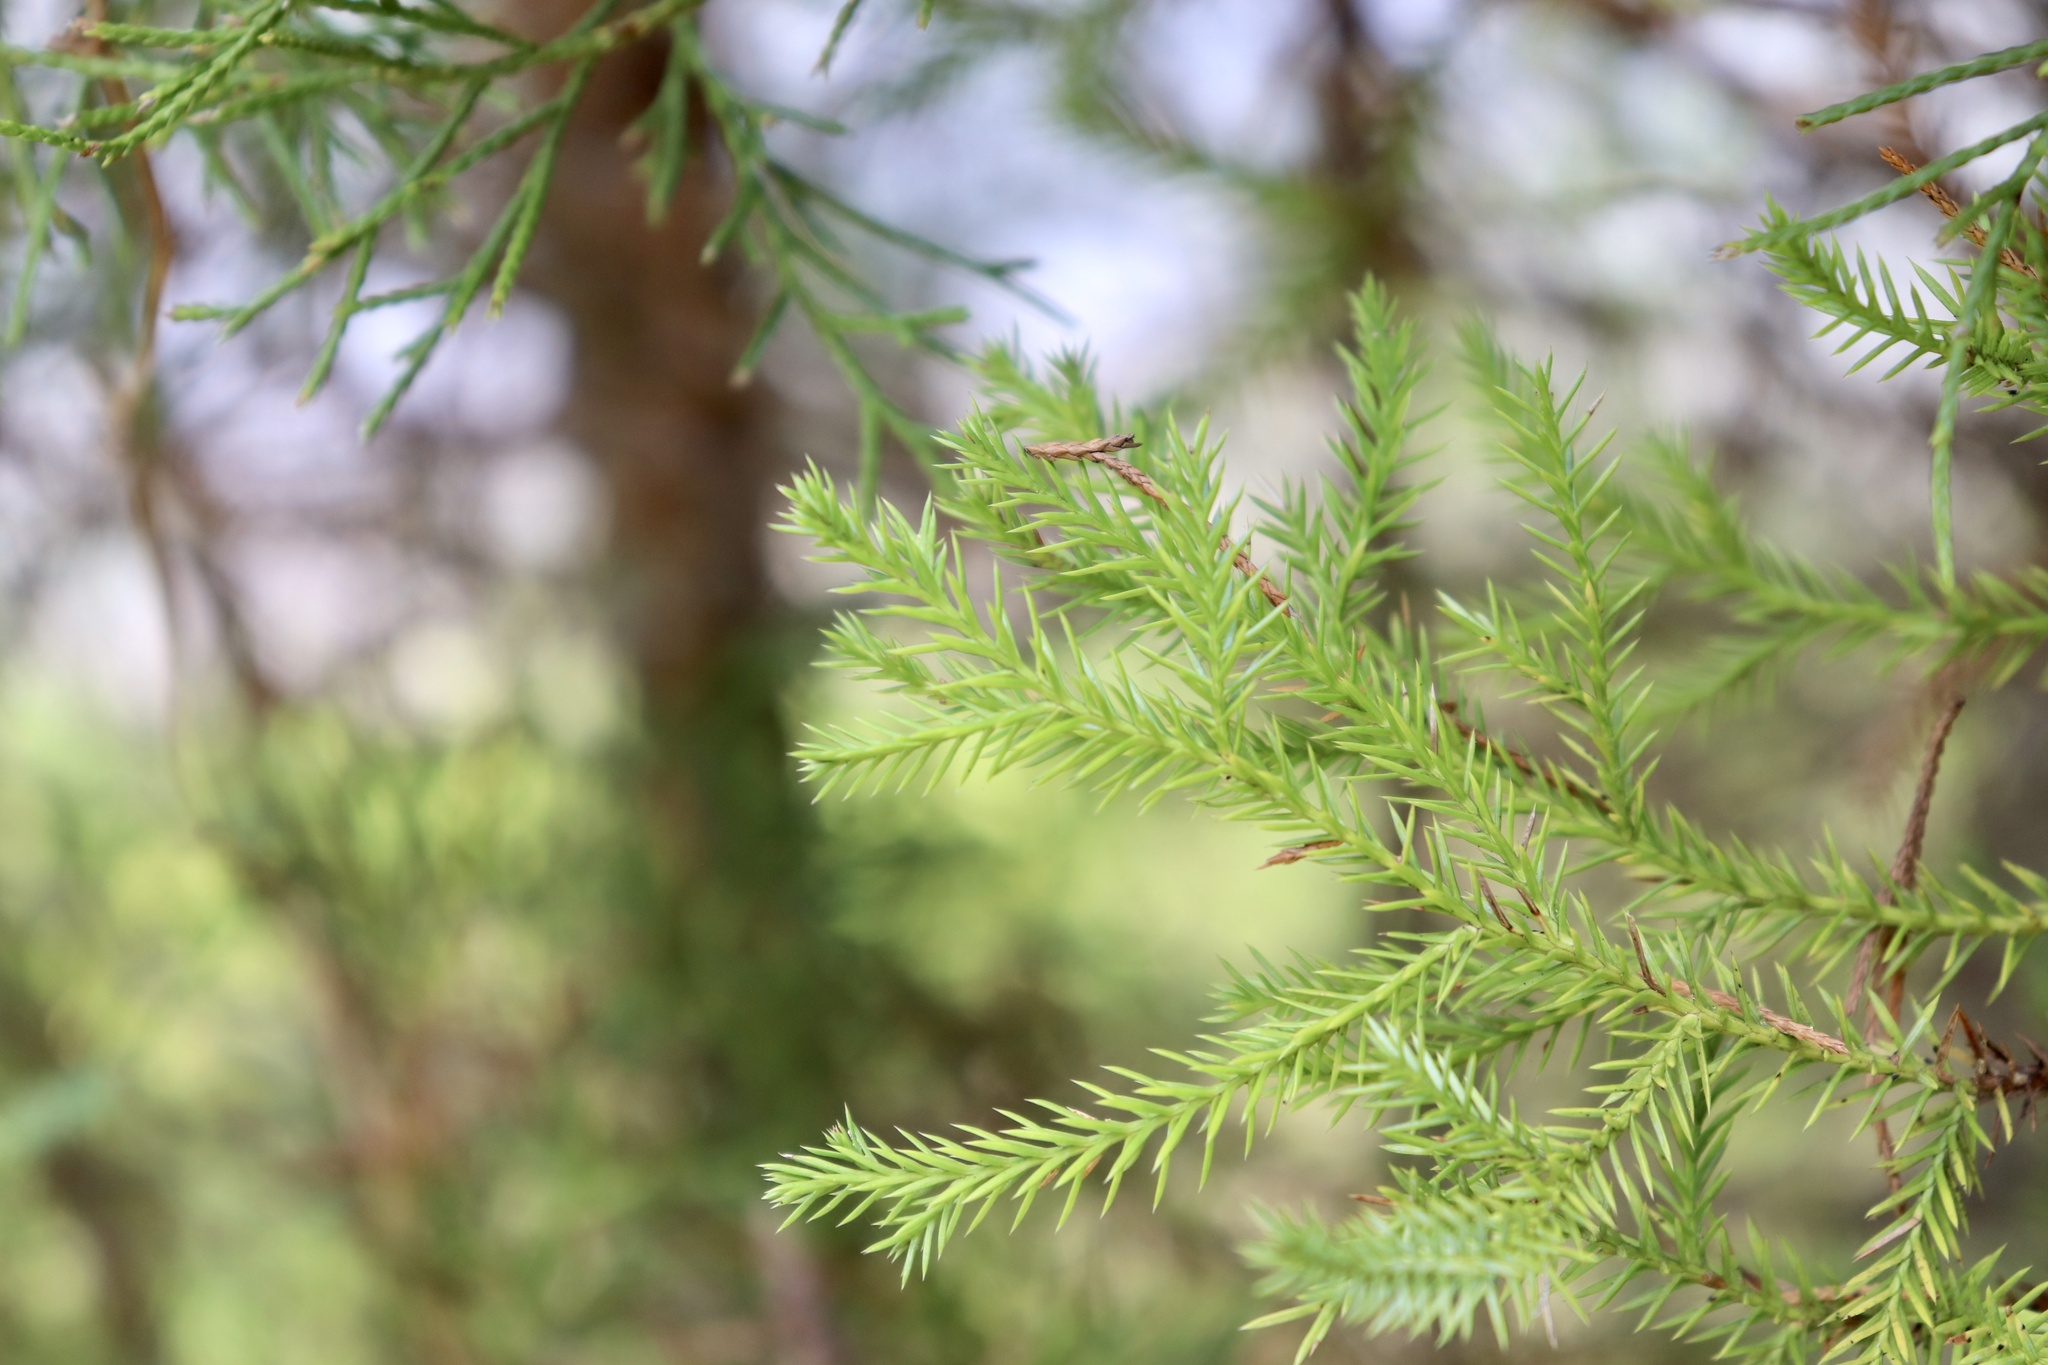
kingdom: Plantae
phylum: Tracheophyta
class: Pinopsida
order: Pinales
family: Cupressaceae
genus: Juniperus
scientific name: Juniperus virginiana
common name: Red juniper
